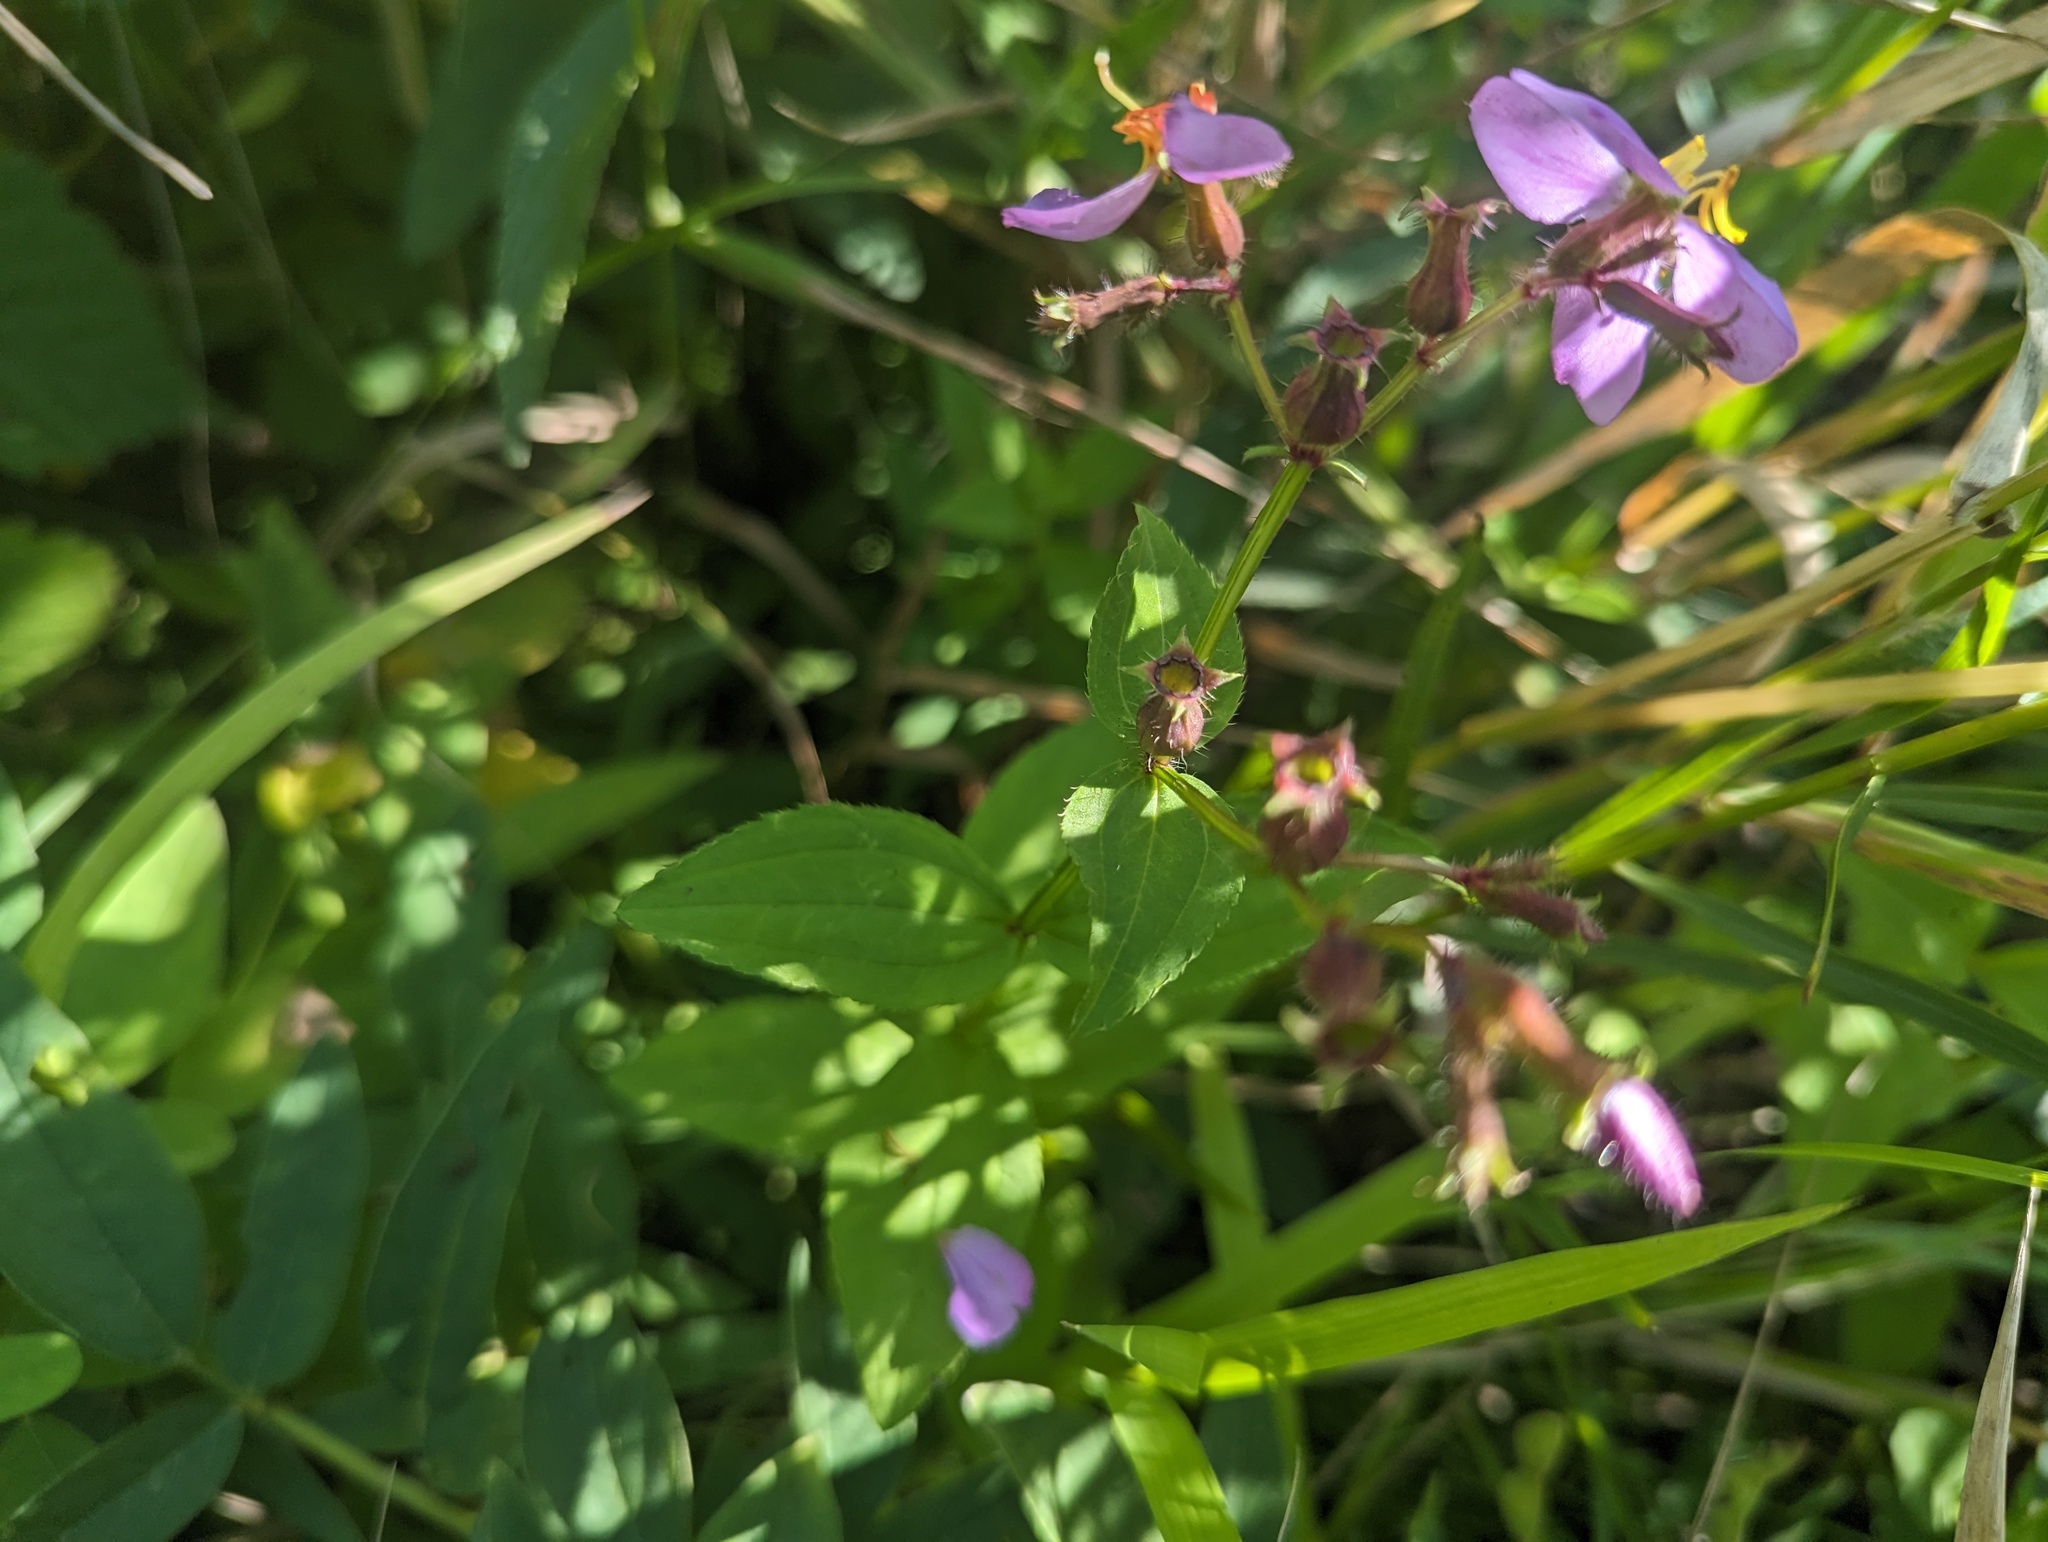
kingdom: Plantae
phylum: Tracheophyta
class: Magnoliopsida
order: Myrtales
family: Melastomataceae
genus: Rhexia
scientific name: Rhexia virginica
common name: Common meadow beauty
